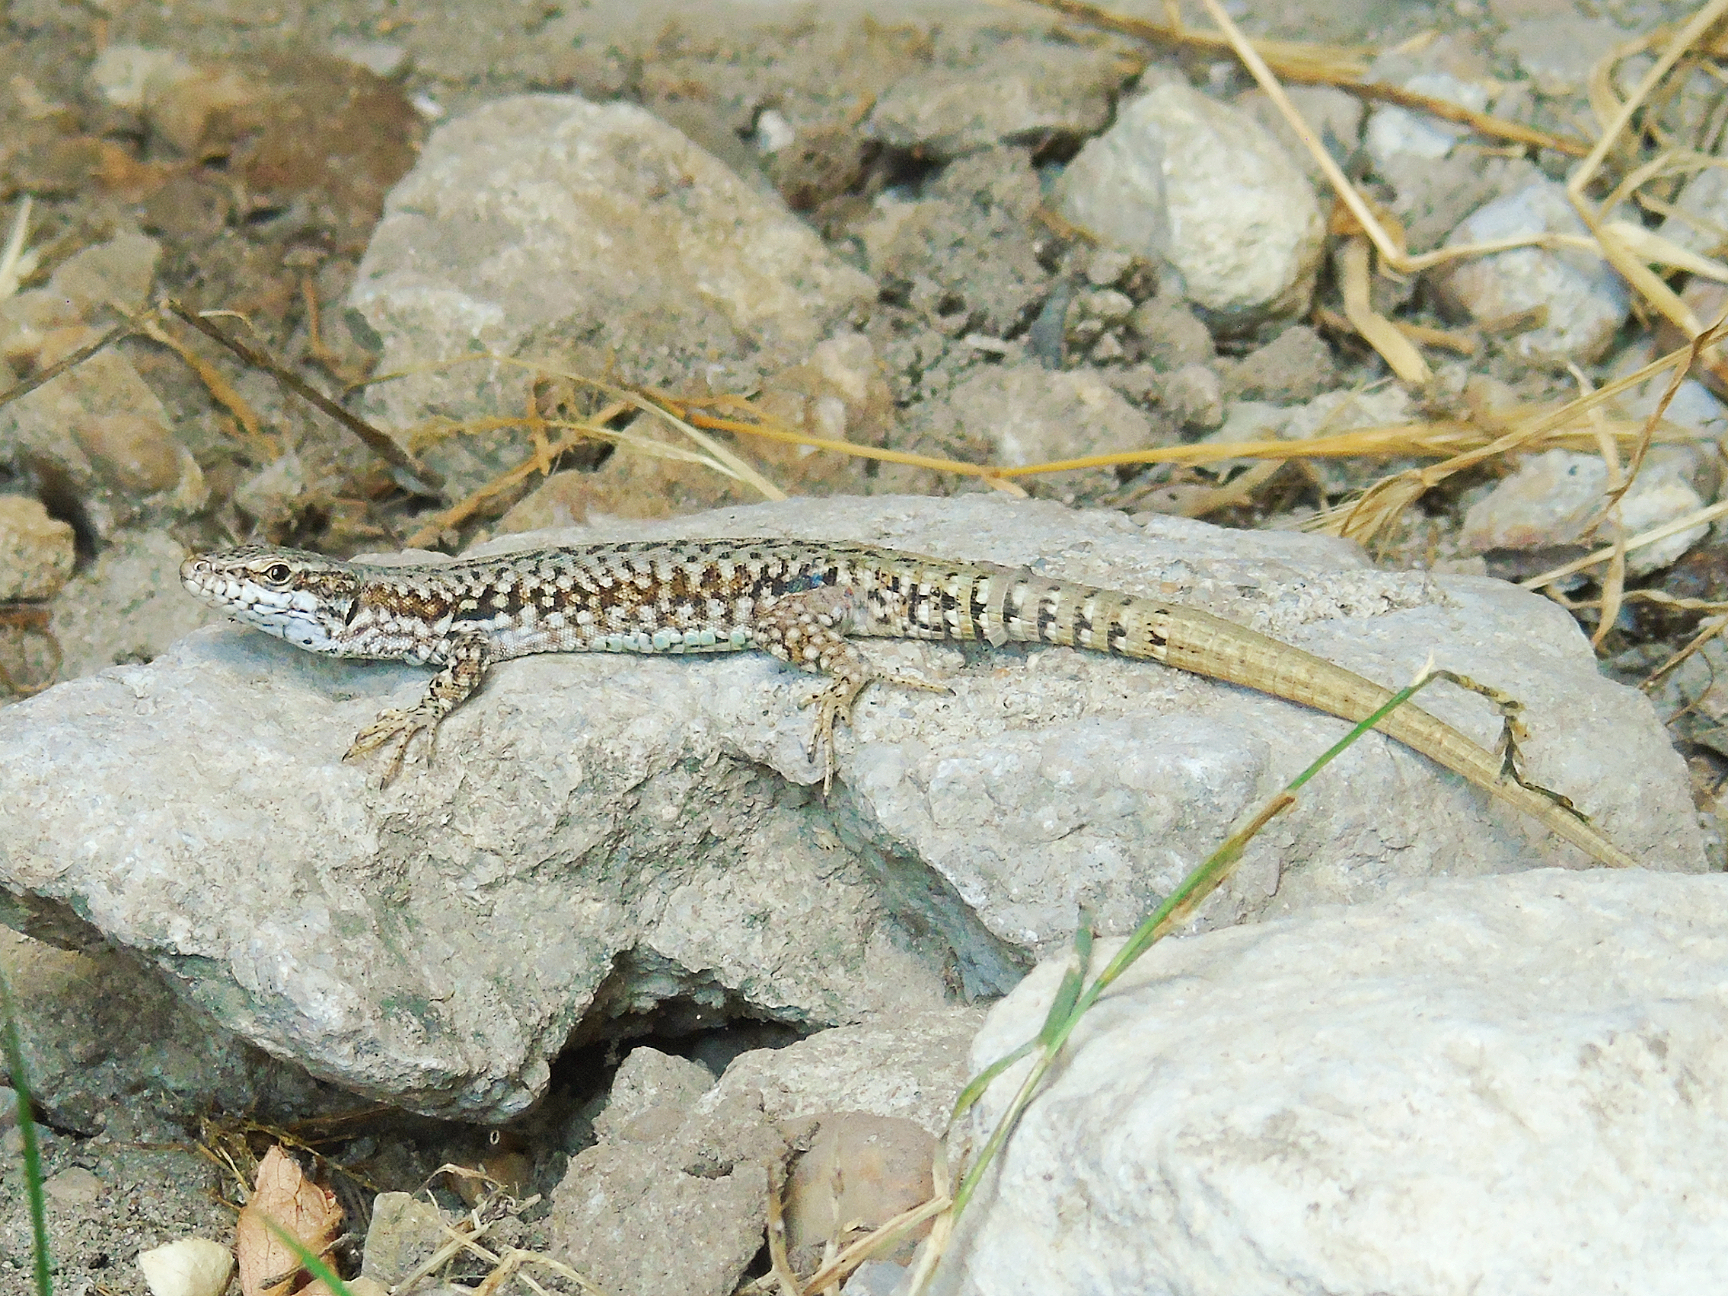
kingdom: Animalia
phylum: Chordata
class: Squamata
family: Lacertidae
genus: Podarcis
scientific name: Podarcis muralis
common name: Common wall lizard
